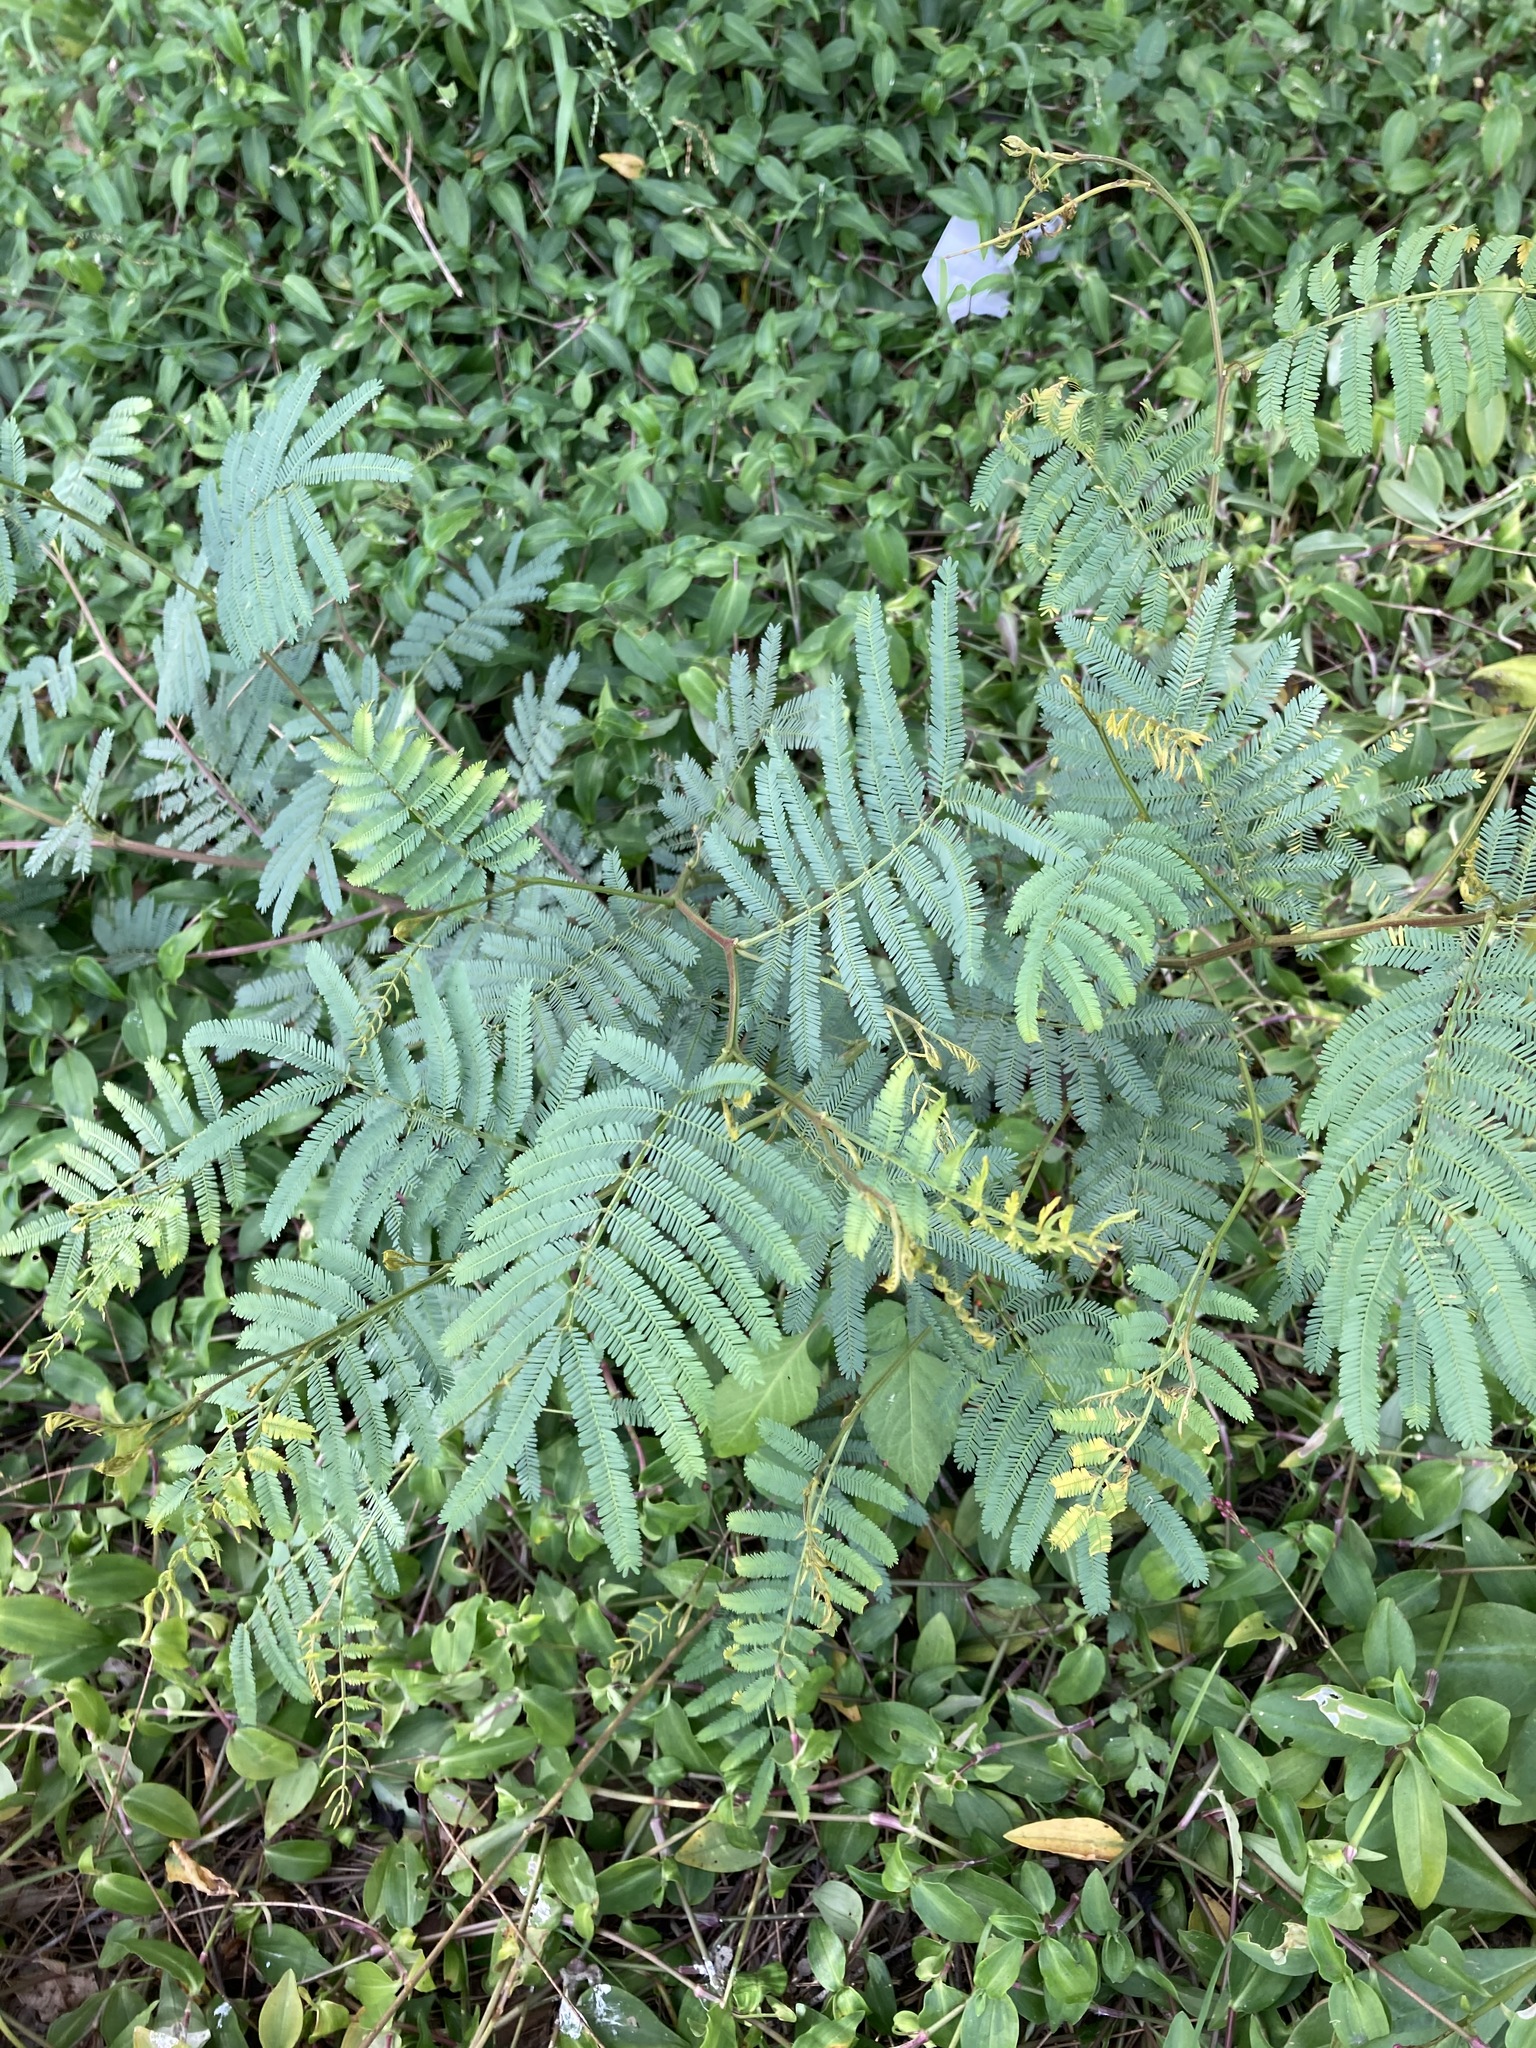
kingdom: Plantae
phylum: Tracheophyta
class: Magnoliopsida
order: Fabales
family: Fabaceae
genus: Acacia
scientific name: Acacia parramattensis
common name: Sydney green wattle
